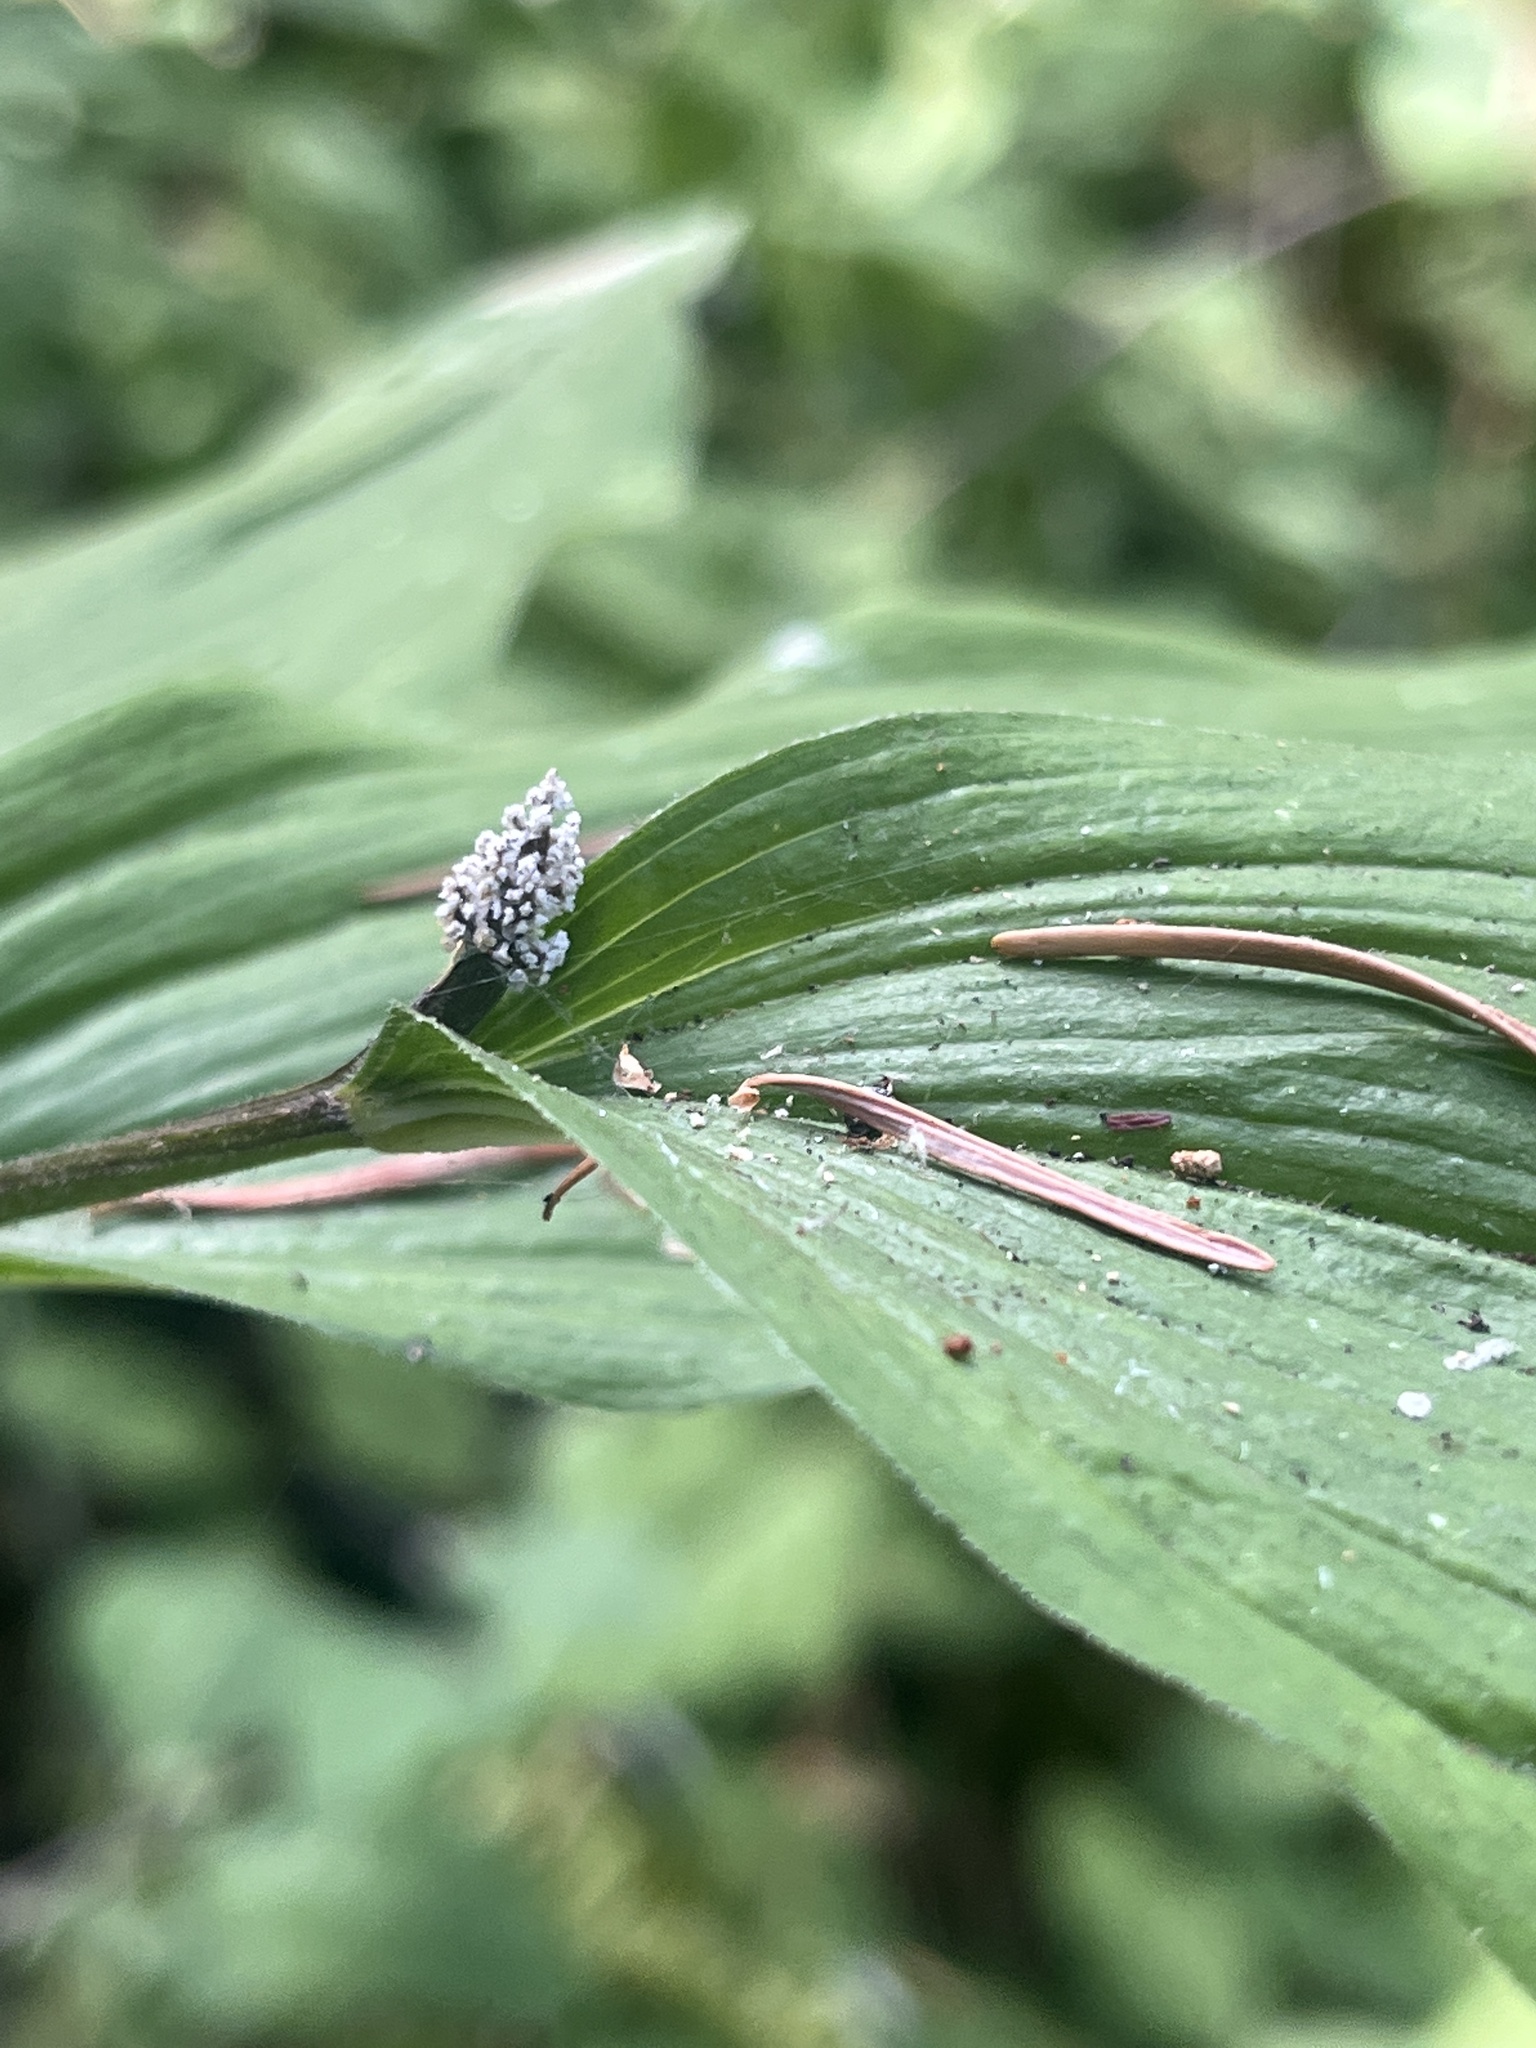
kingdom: Plantae
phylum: Tracheophyta
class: Liliopsida
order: Asparagales
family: Asparagaceae
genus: Maianthemum
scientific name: Maianthemum racemosum
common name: False spikenard
